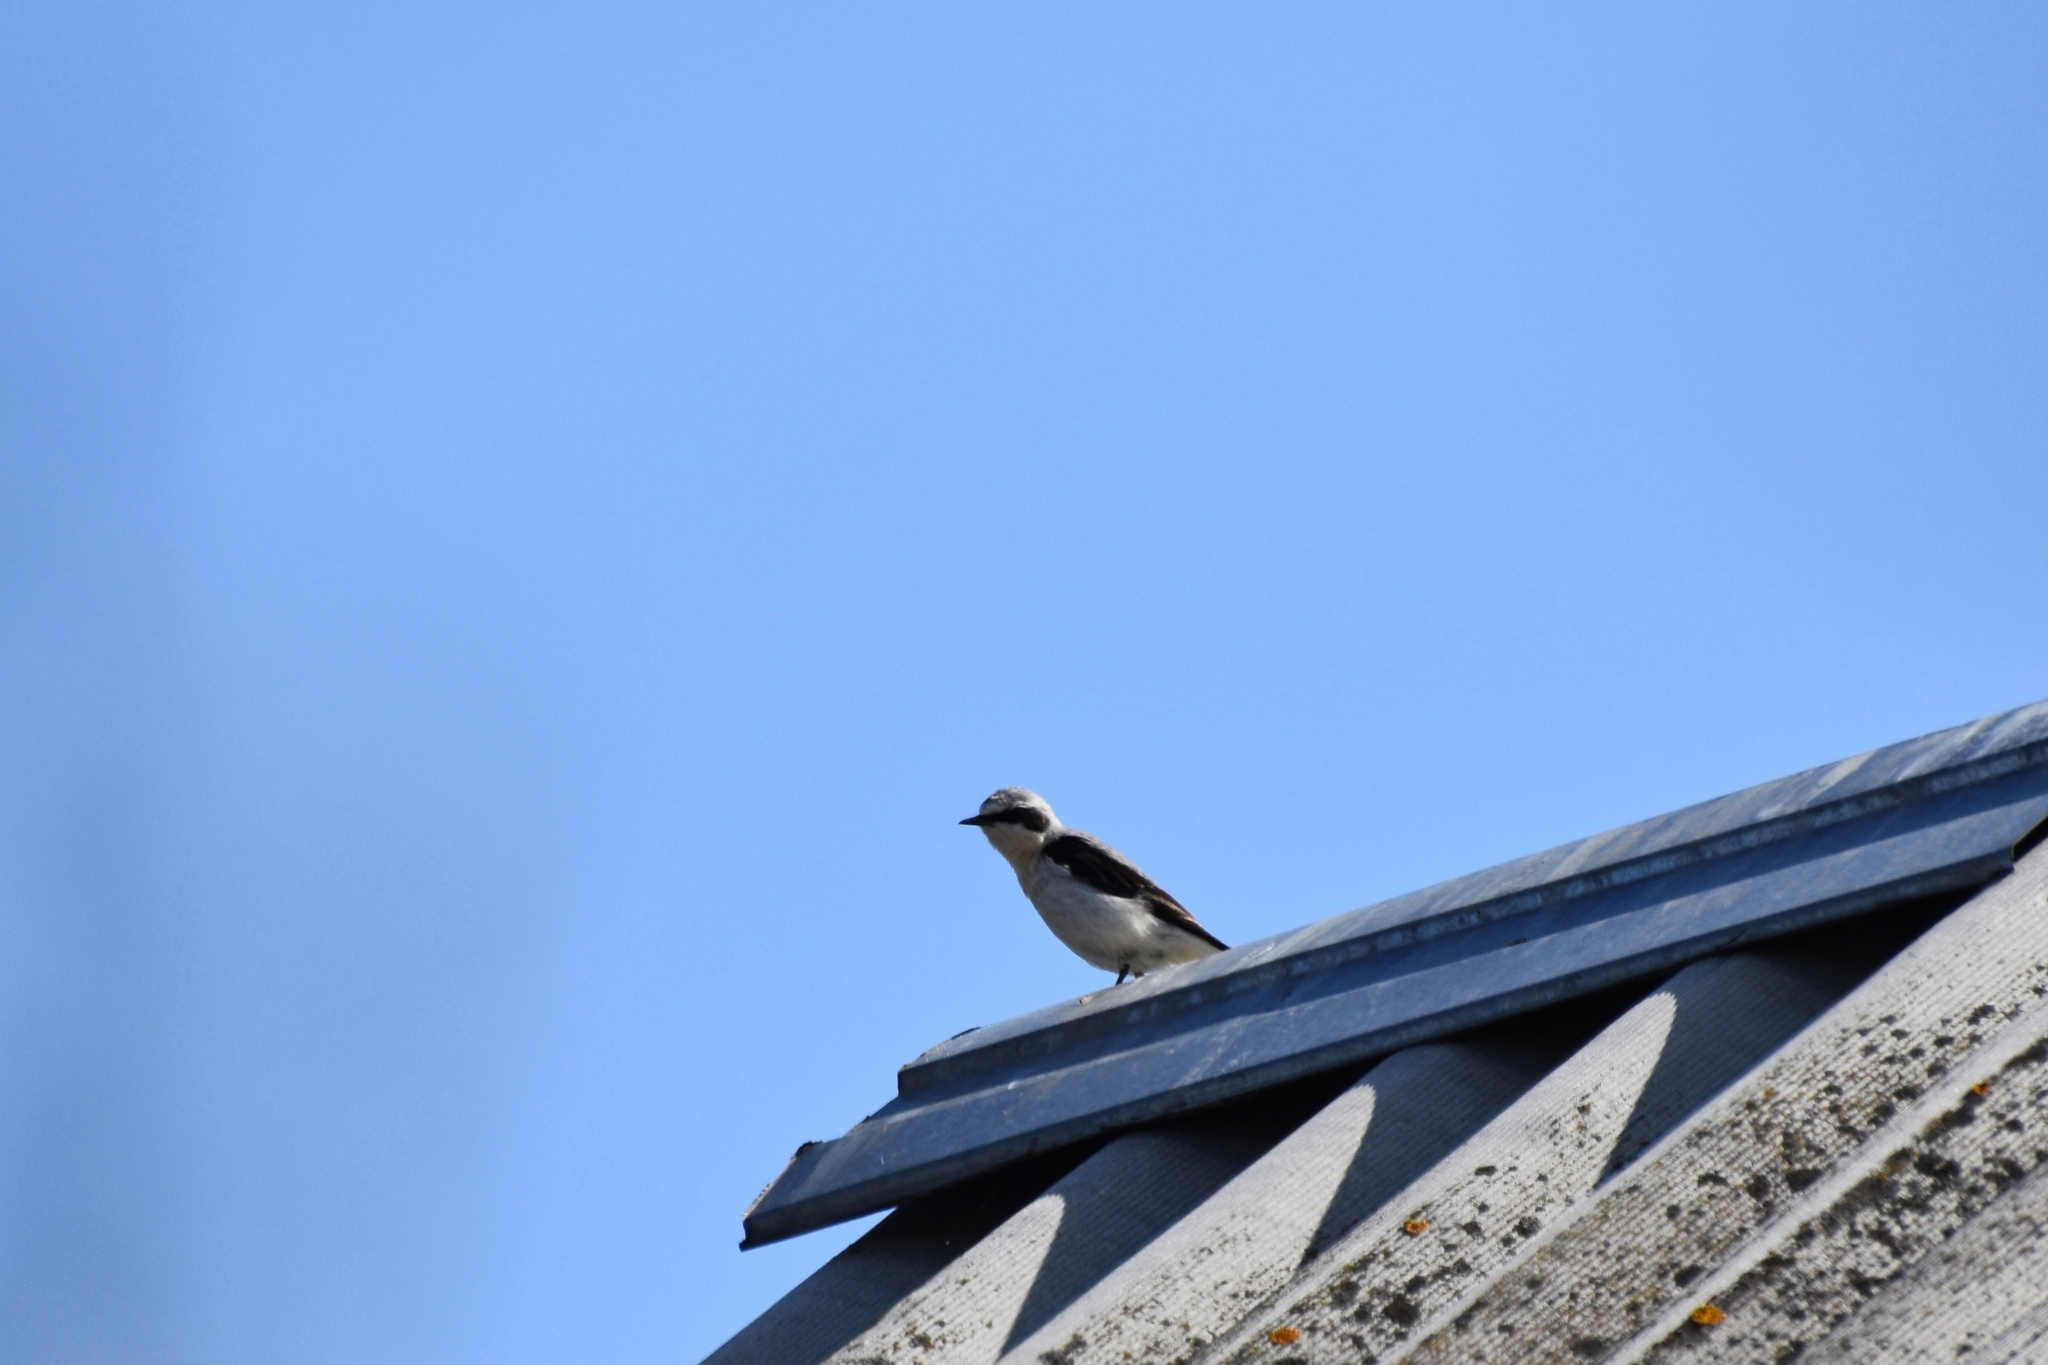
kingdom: Animalia
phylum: Chordata
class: Aves
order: Passeriformes
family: Muscicapidae
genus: Oenanthe
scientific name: Oenanthe oenanthe
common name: Northern wheatear
